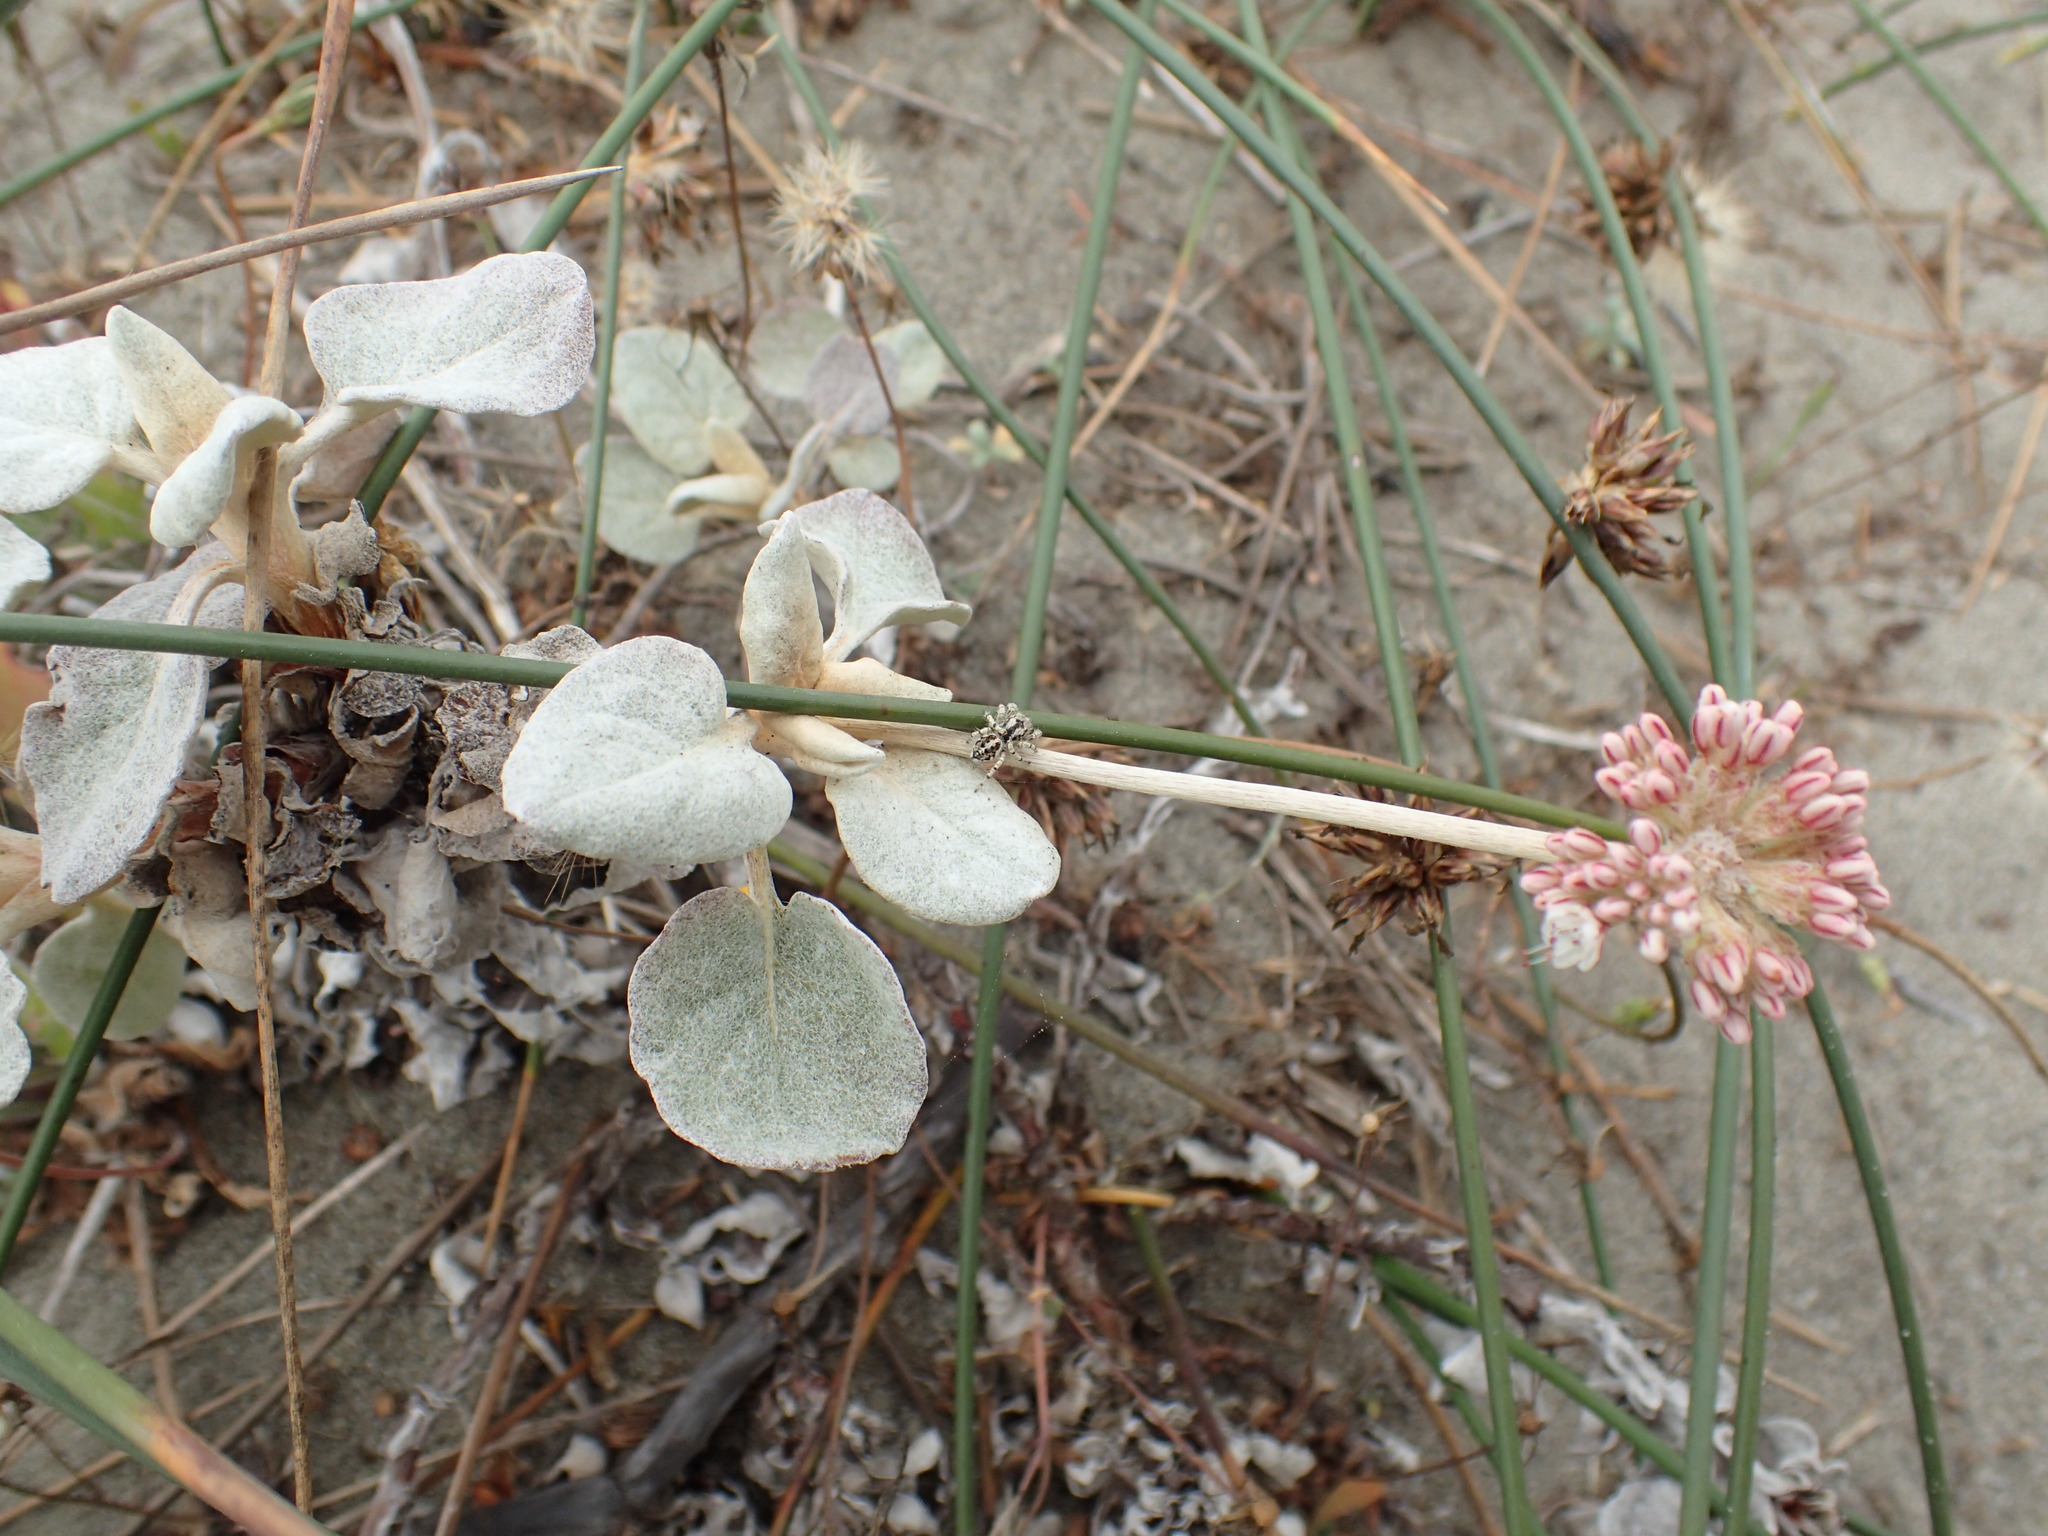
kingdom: Animalia
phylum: Arthropoda
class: Arachnida
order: Araneae
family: Salticidae
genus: Habronattus
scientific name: Habronattus amicus
